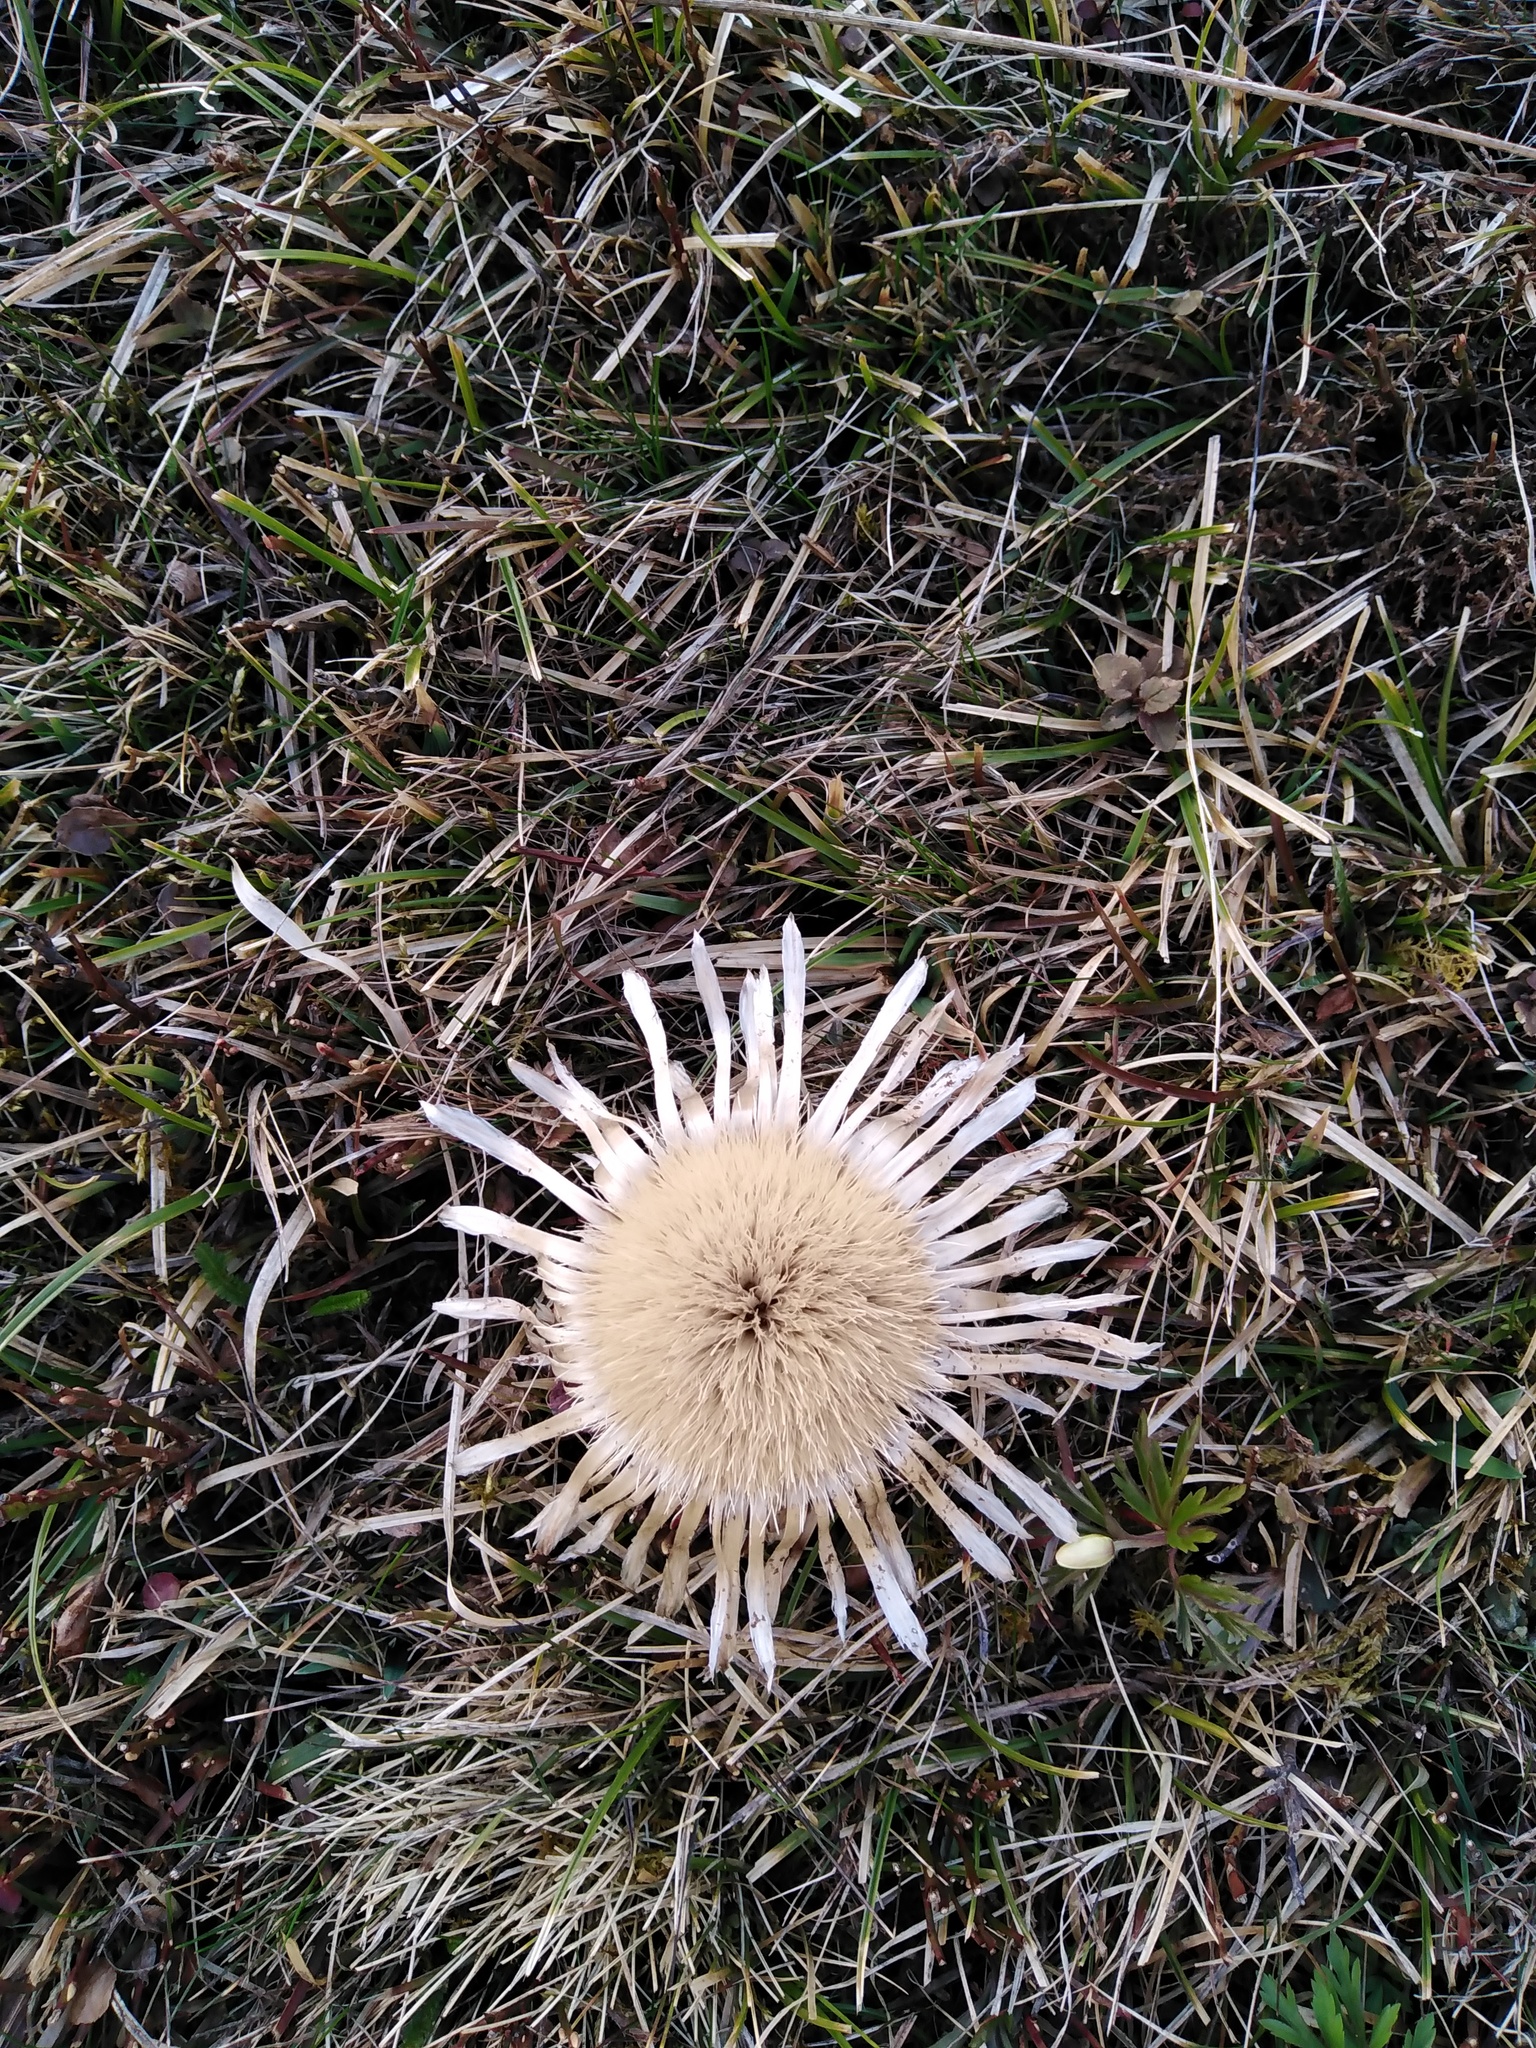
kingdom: Plantae
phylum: Tracheophyta
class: Magnoliopsida
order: Asterales
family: Asteraceae
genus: Carlina
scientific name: Carlina acaulis
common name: Stemless carline thistle
